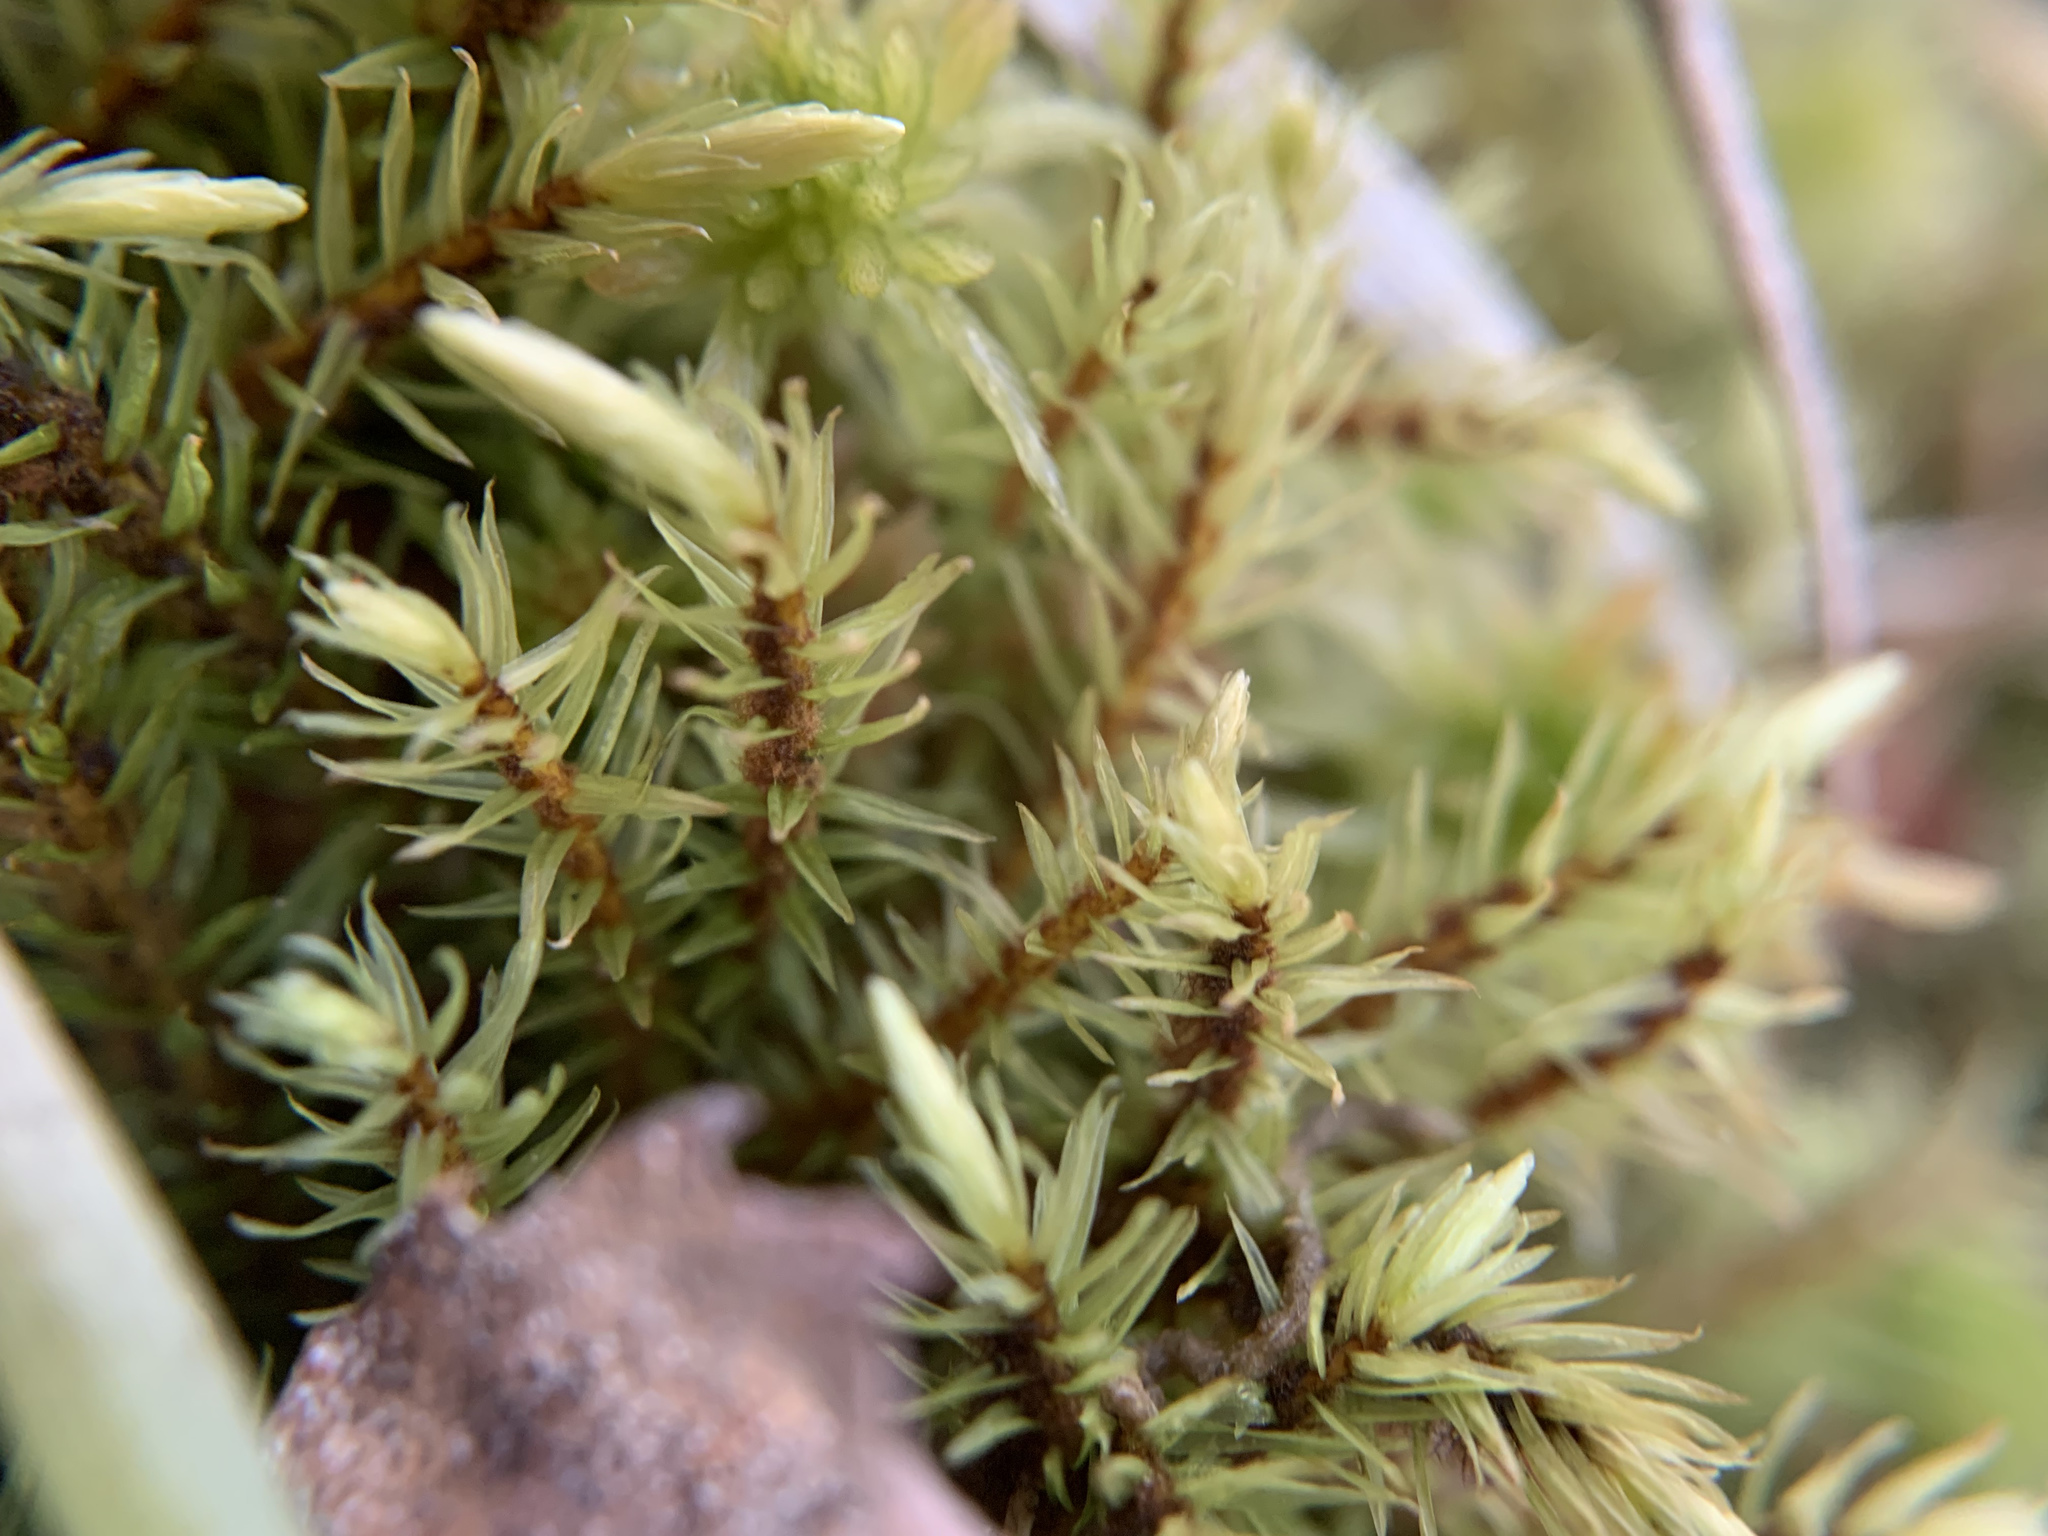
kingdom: Plantae
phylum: Bryophyta
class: Bryopsida
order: Aulacomniales
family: Aulacomniaceae
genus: Aulacomnium
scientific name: Aulacomnium palustre
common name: Bog groove-moss
